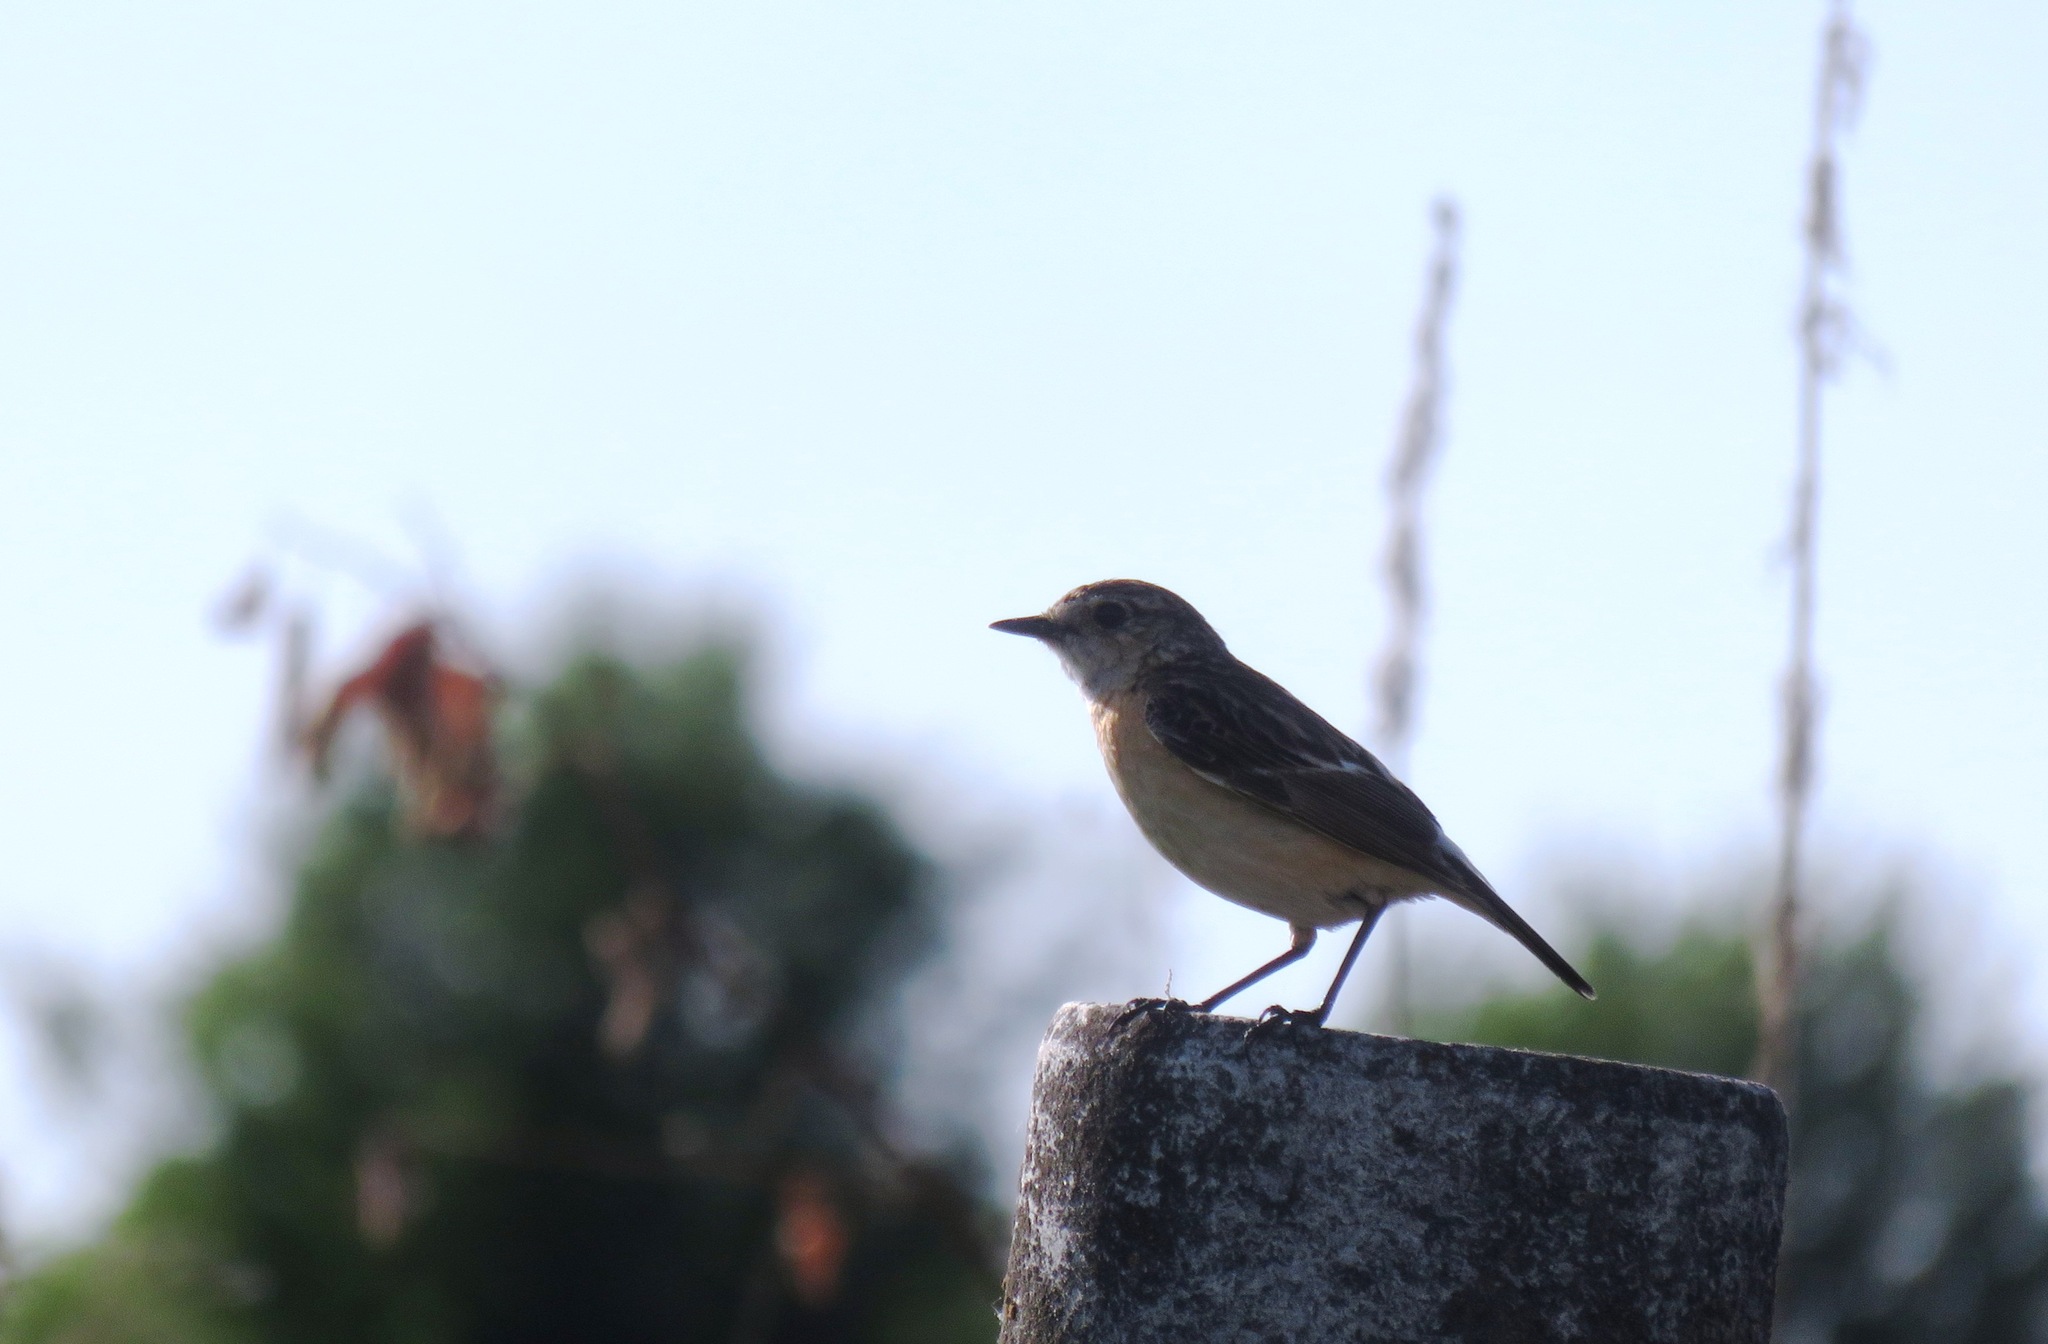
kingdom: Animalia
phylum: Chordata
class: Aves
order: Passeriformes
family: Muscicapidae
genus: Saxicola
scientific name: Saxicola maurus
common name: Siberian stonechat
